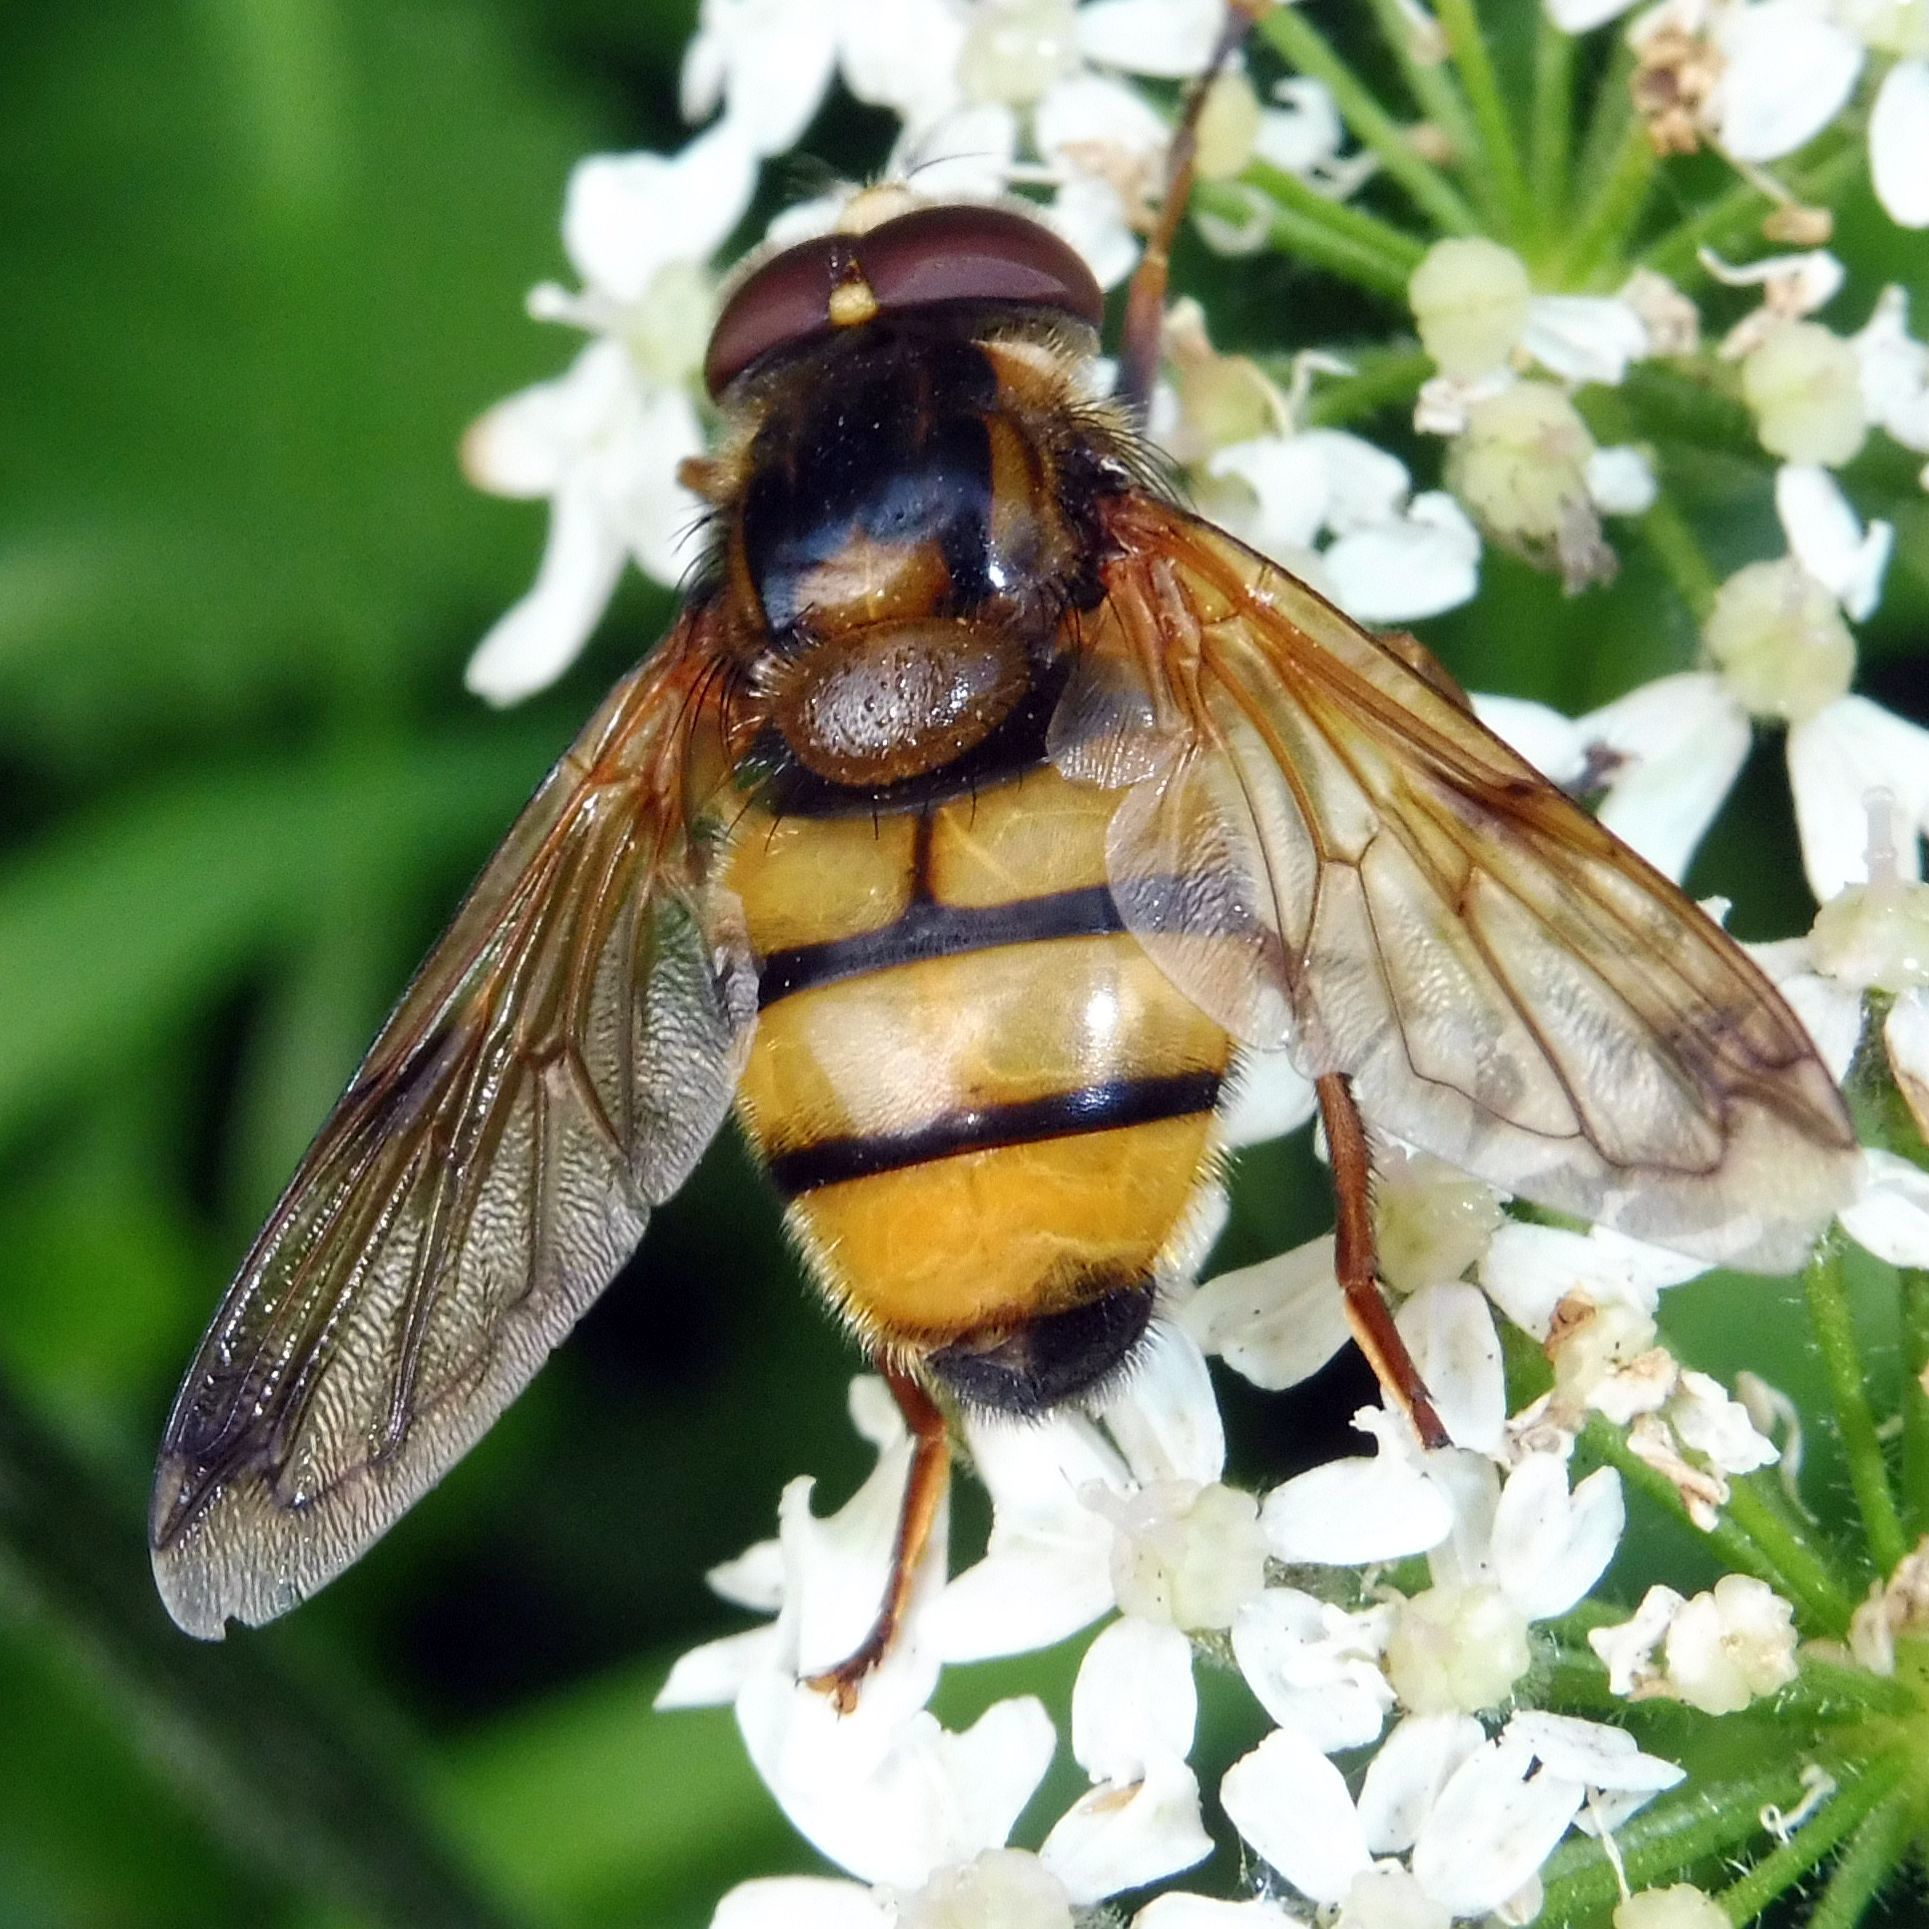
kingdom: Animalia
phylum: Arthropoda
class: Insecta
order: Diptera
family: Syrphidae
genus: Volucella
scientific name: Volucella inanis
